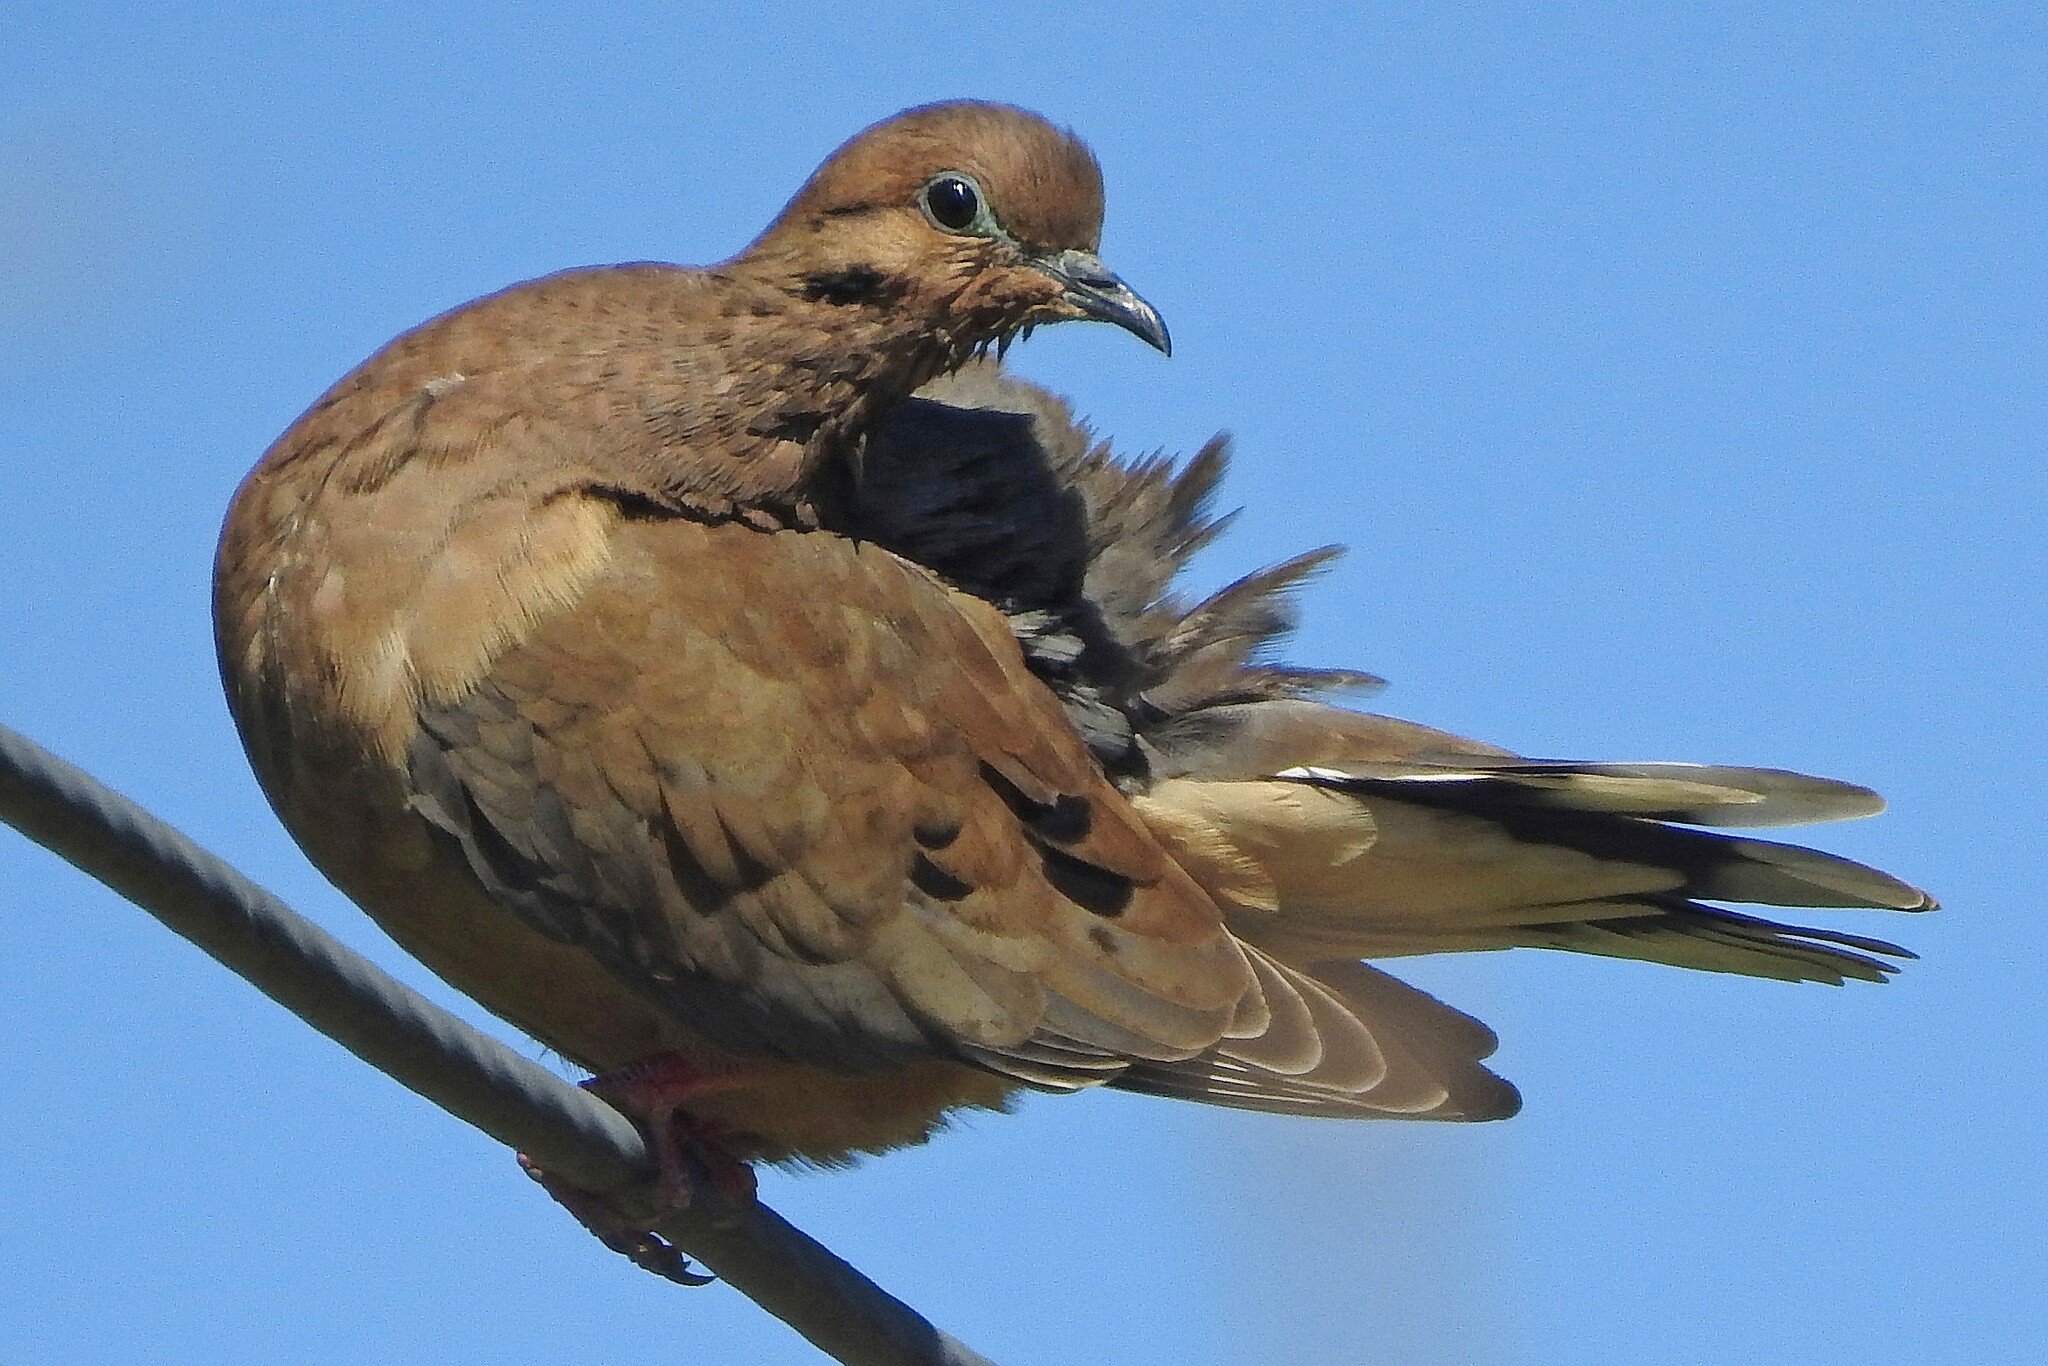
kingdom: Animalia
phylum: Chordata
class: Aves
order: Columbiformes
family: Columbidae
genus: Zenaida
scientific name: Zenaida auriculata
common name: Eared dove
